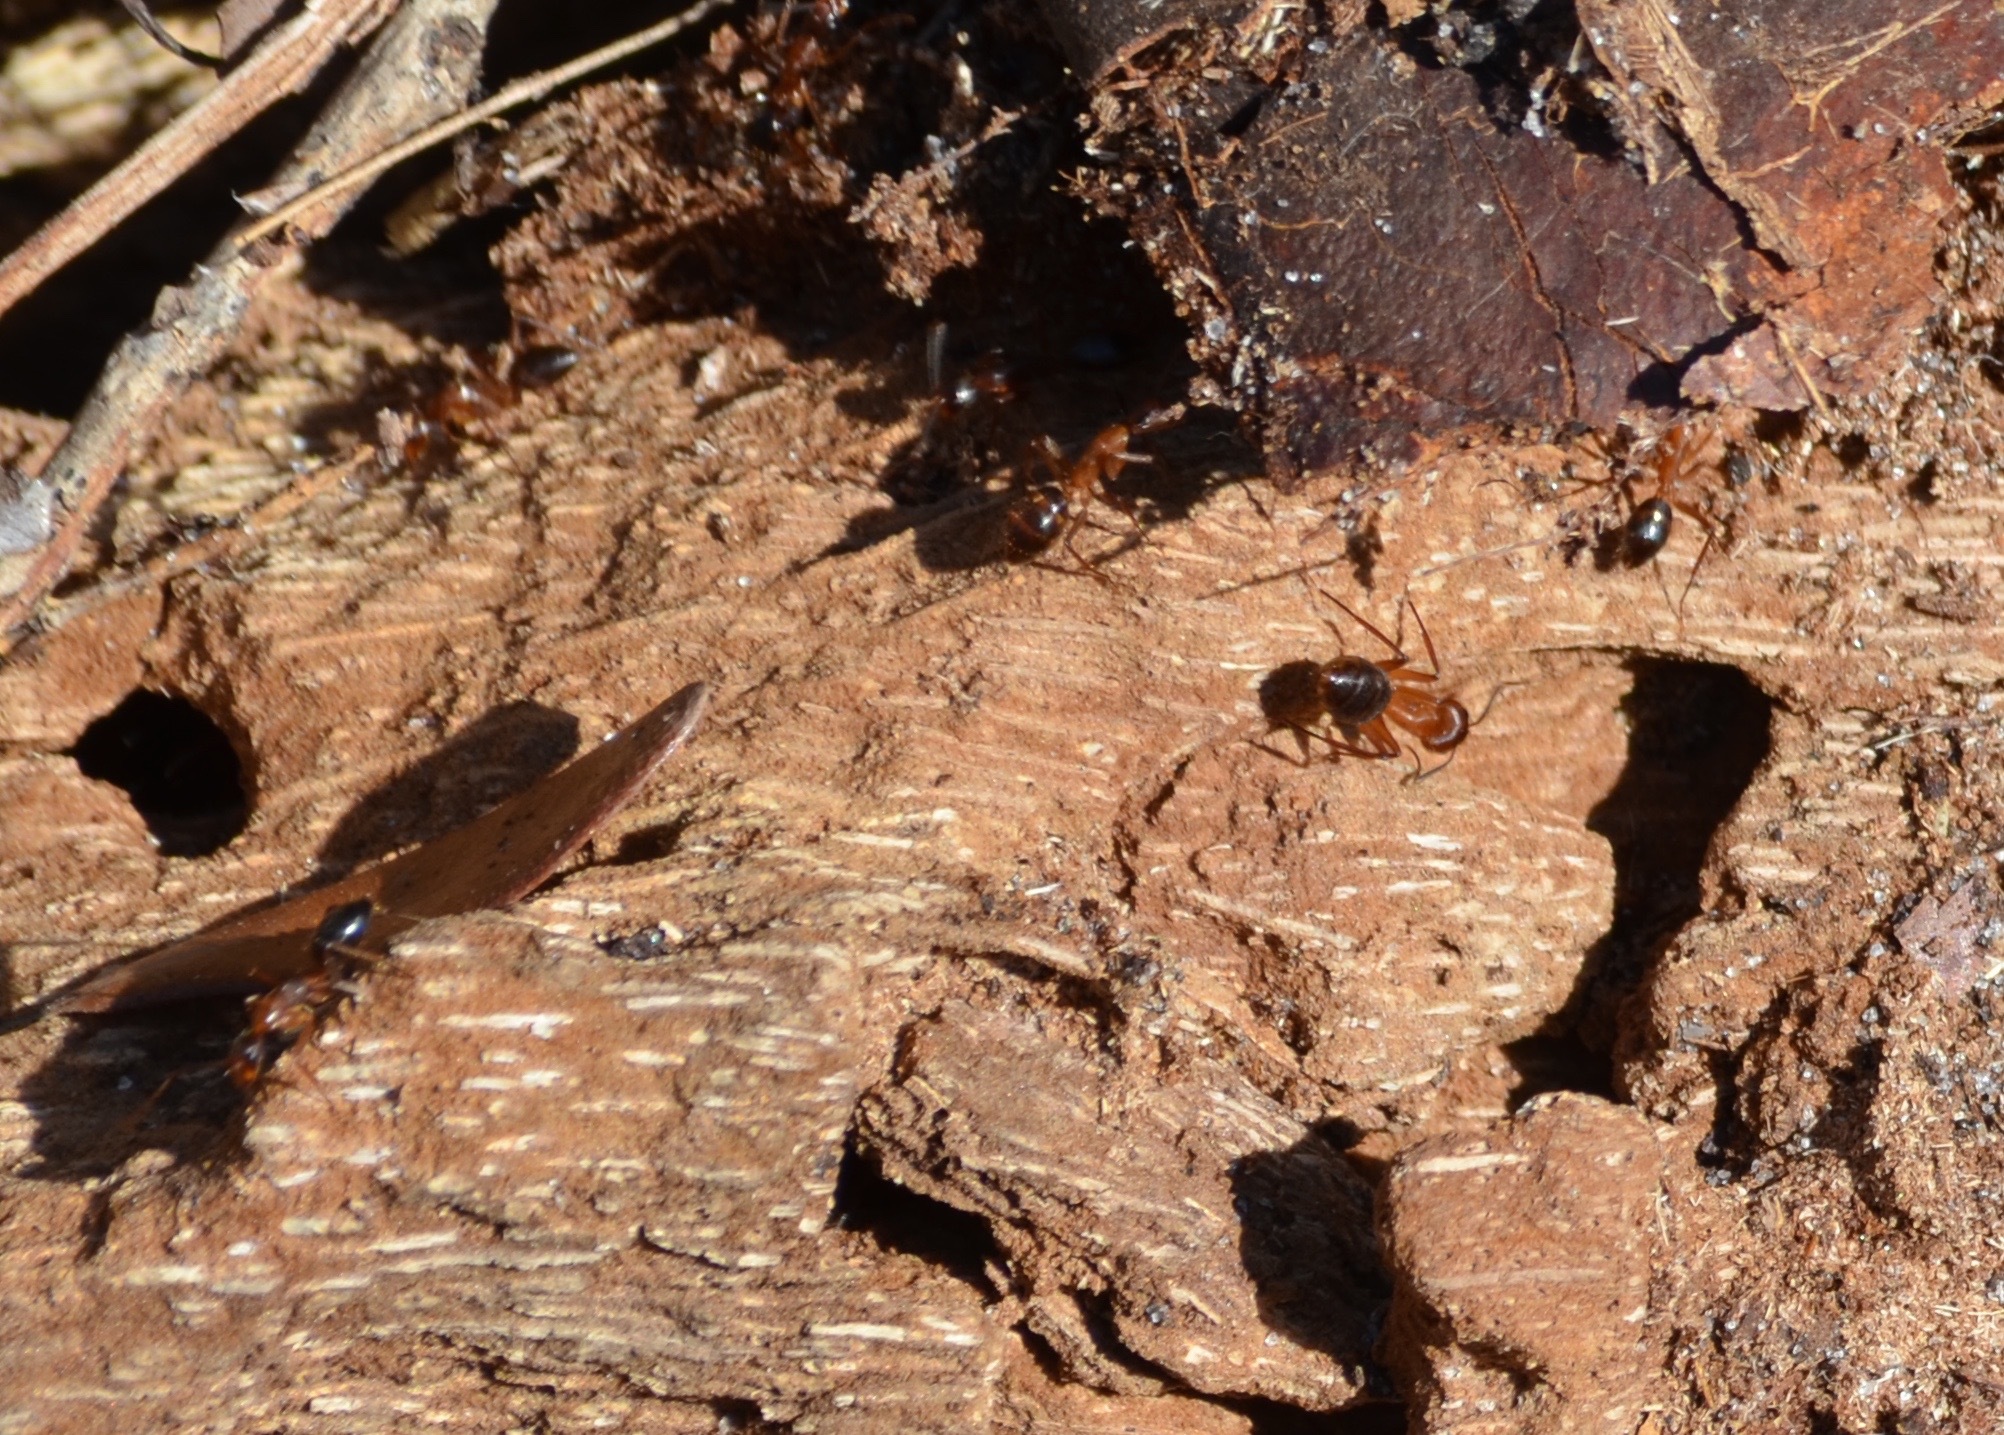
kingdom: Animalia
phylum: Arthropoda
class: Insecta
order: Hymenoptera
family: Formicidae
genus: Camponotus
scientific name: Camponotus floridanus
